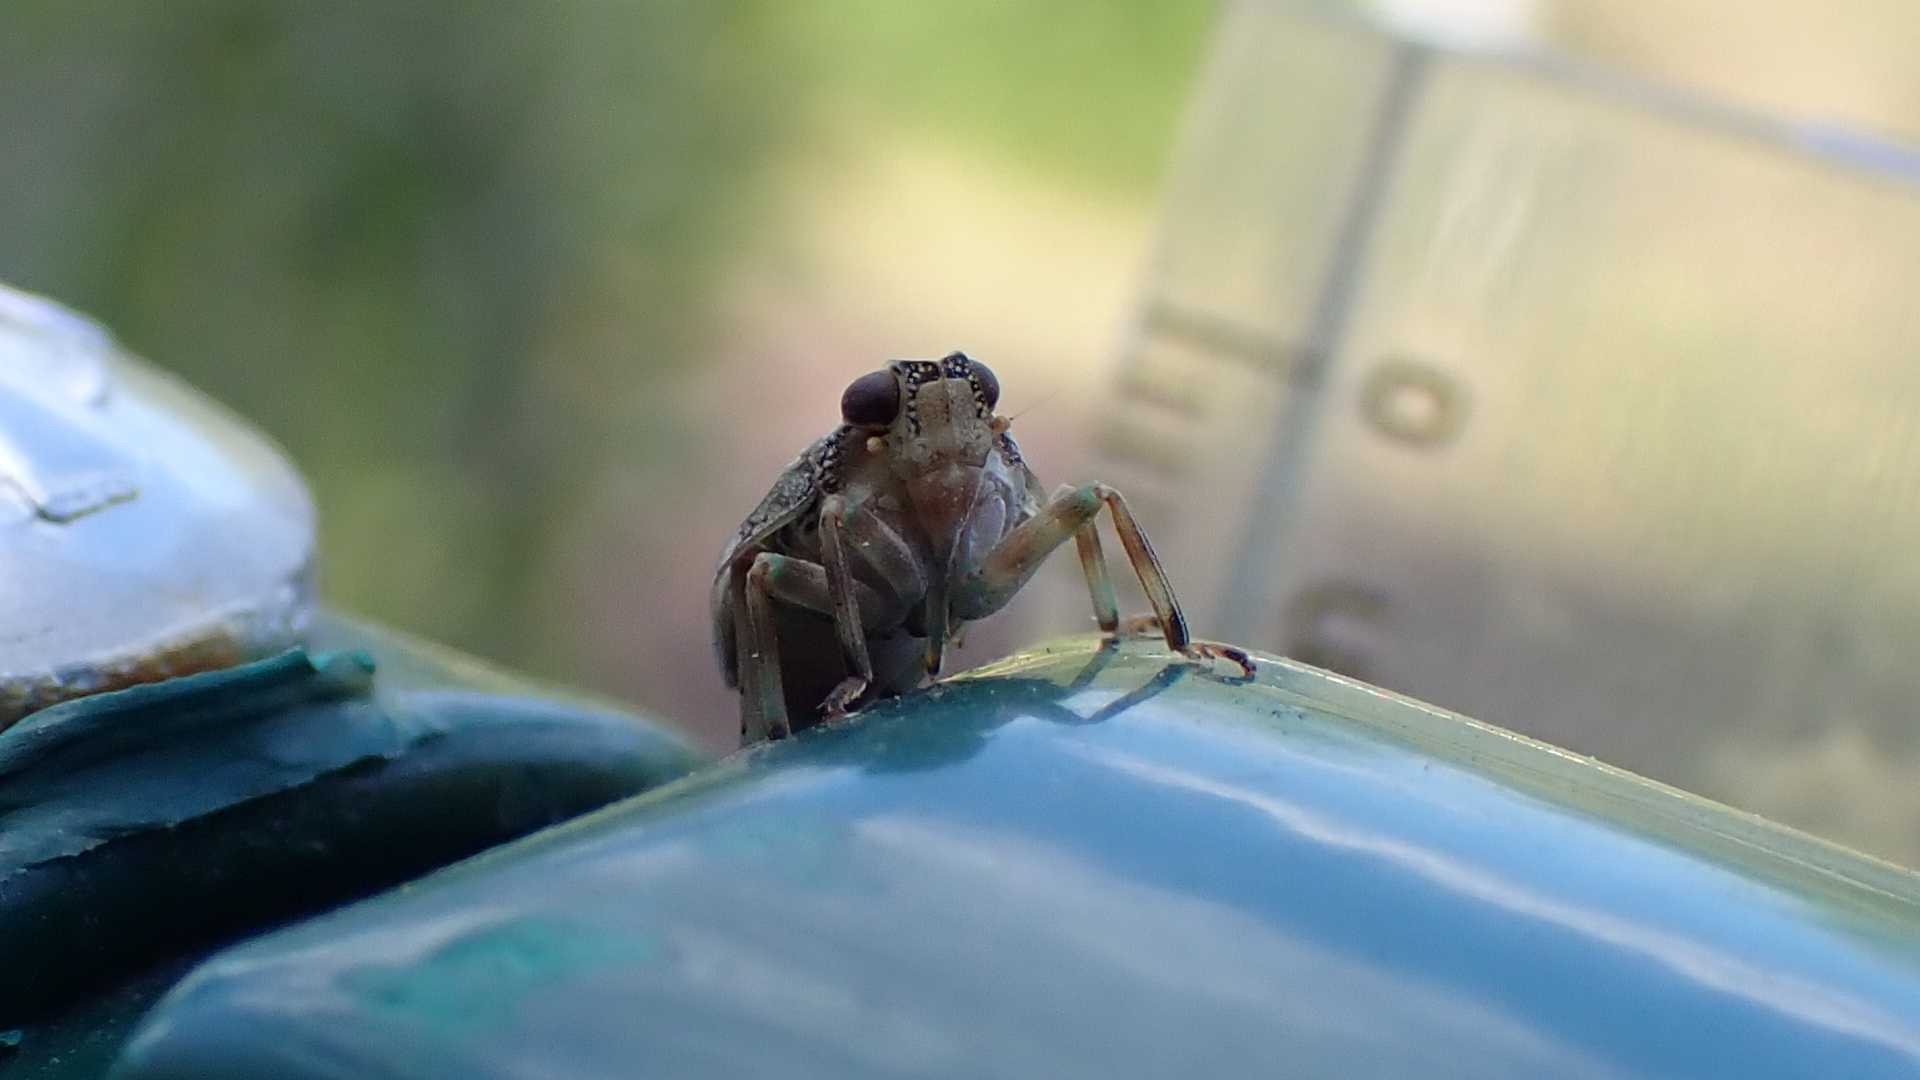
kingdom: Animalia
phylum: Arthropoda
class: Insecta
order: Hemiptera
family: Issidae
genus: Issus
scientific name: Issus coleoptratus
